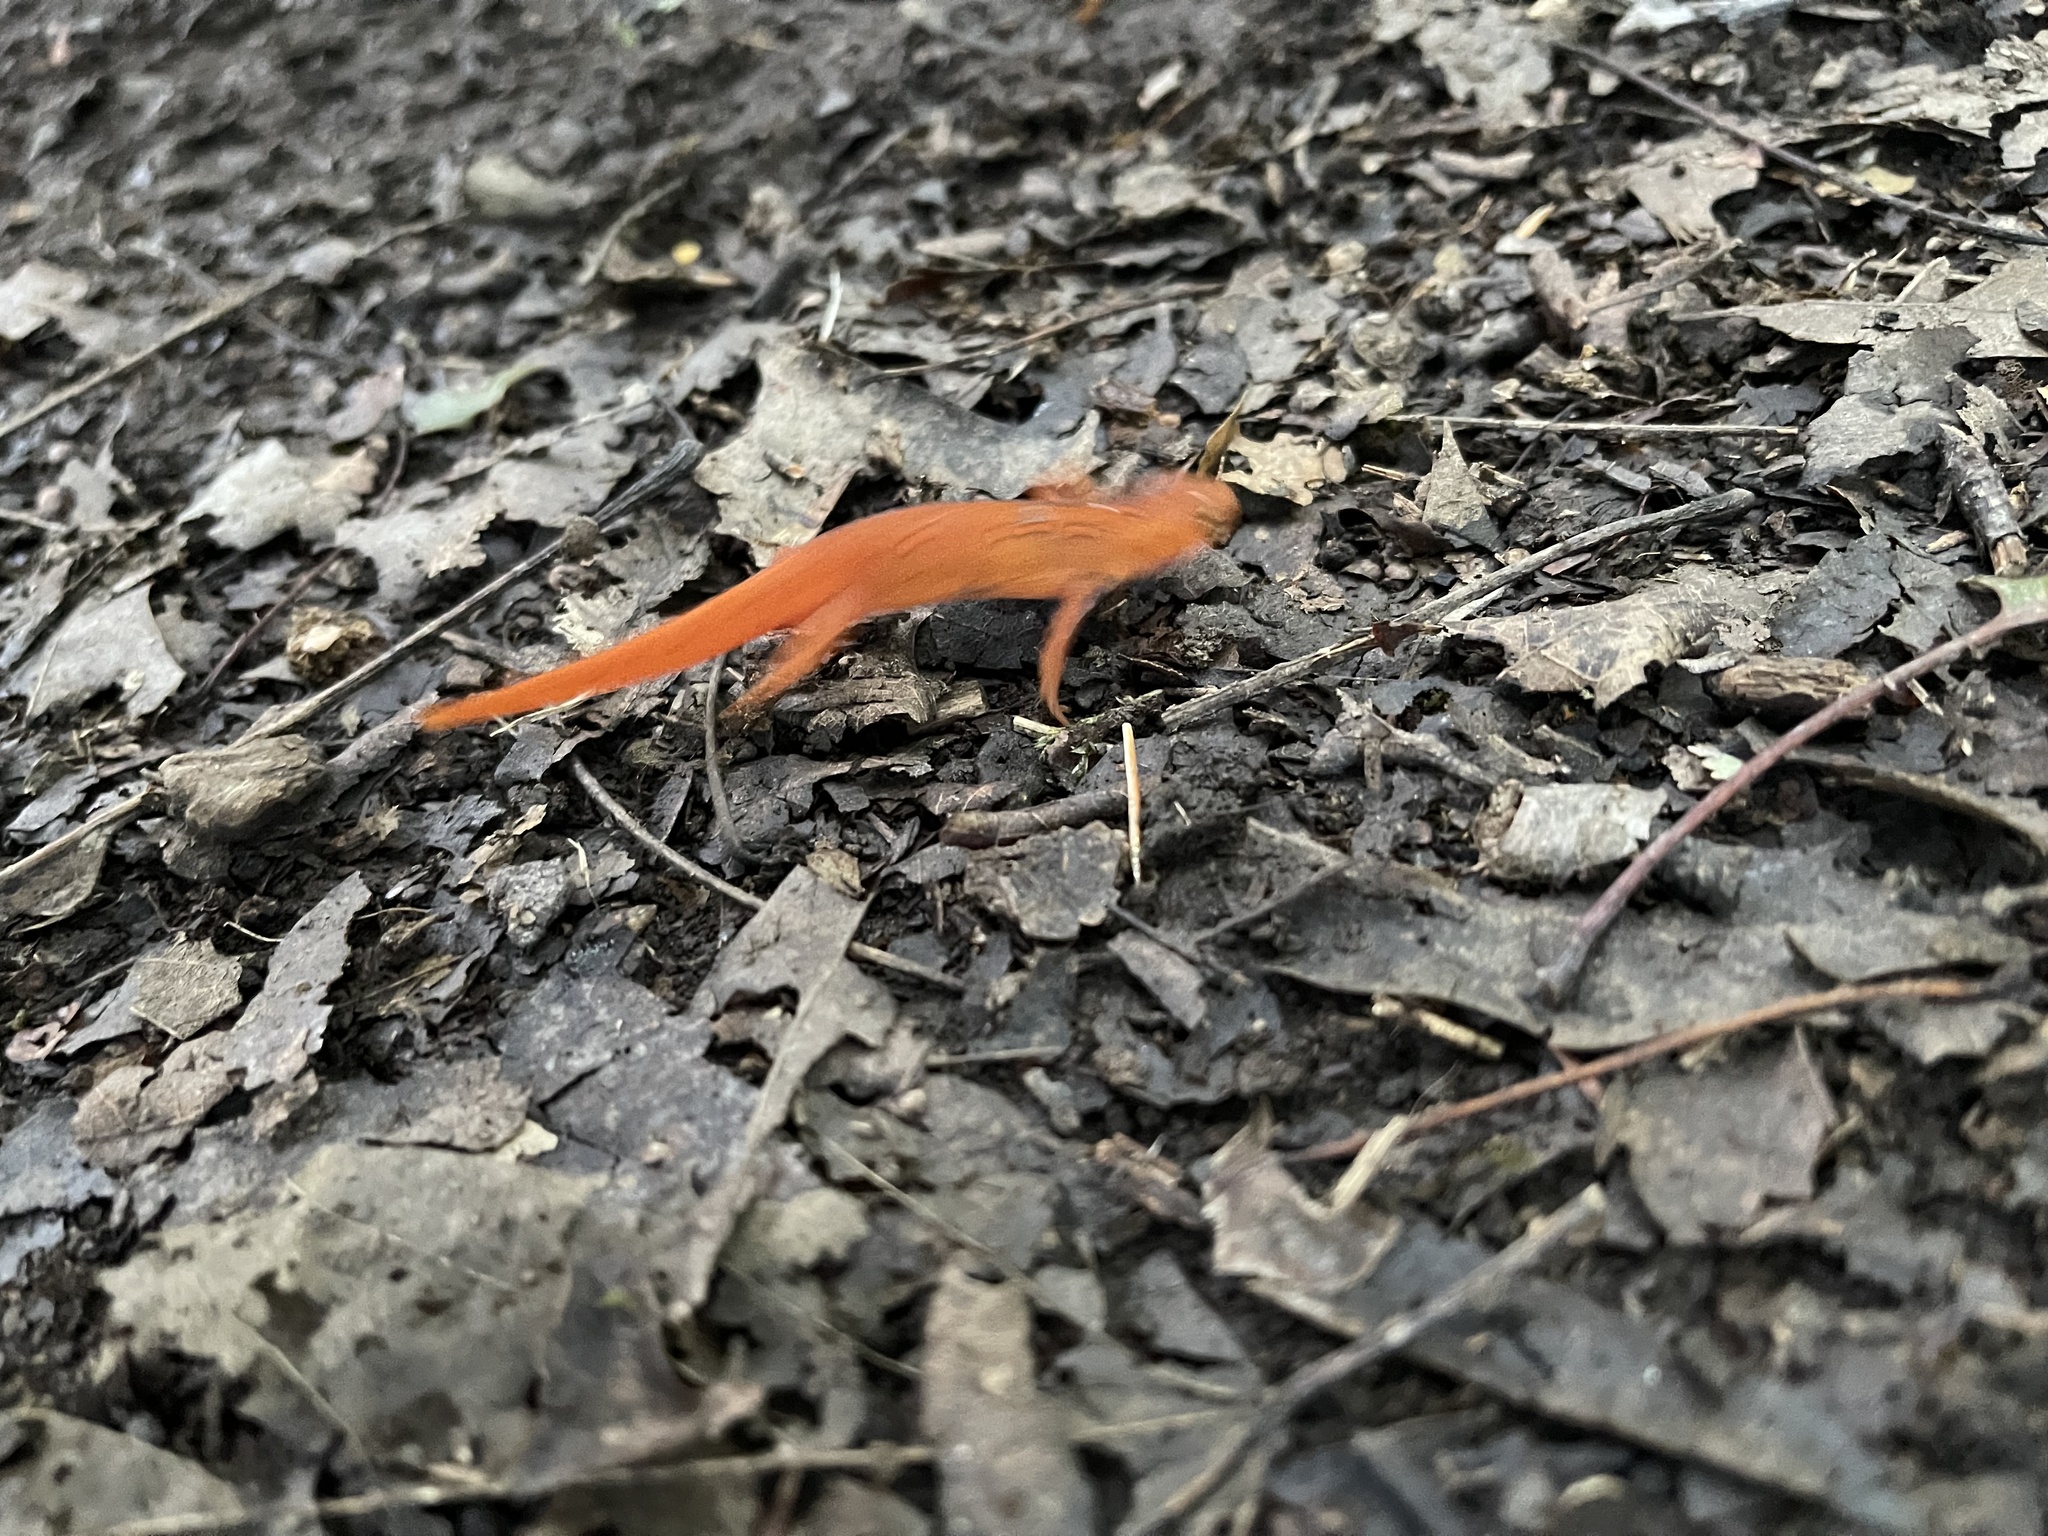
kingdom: Animalia
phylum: Chordata
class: Amphibia
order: Caudata
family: Salamandridae
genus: Notophthalmus
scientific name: Notophthalmus viridescens
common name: Eastern newt
